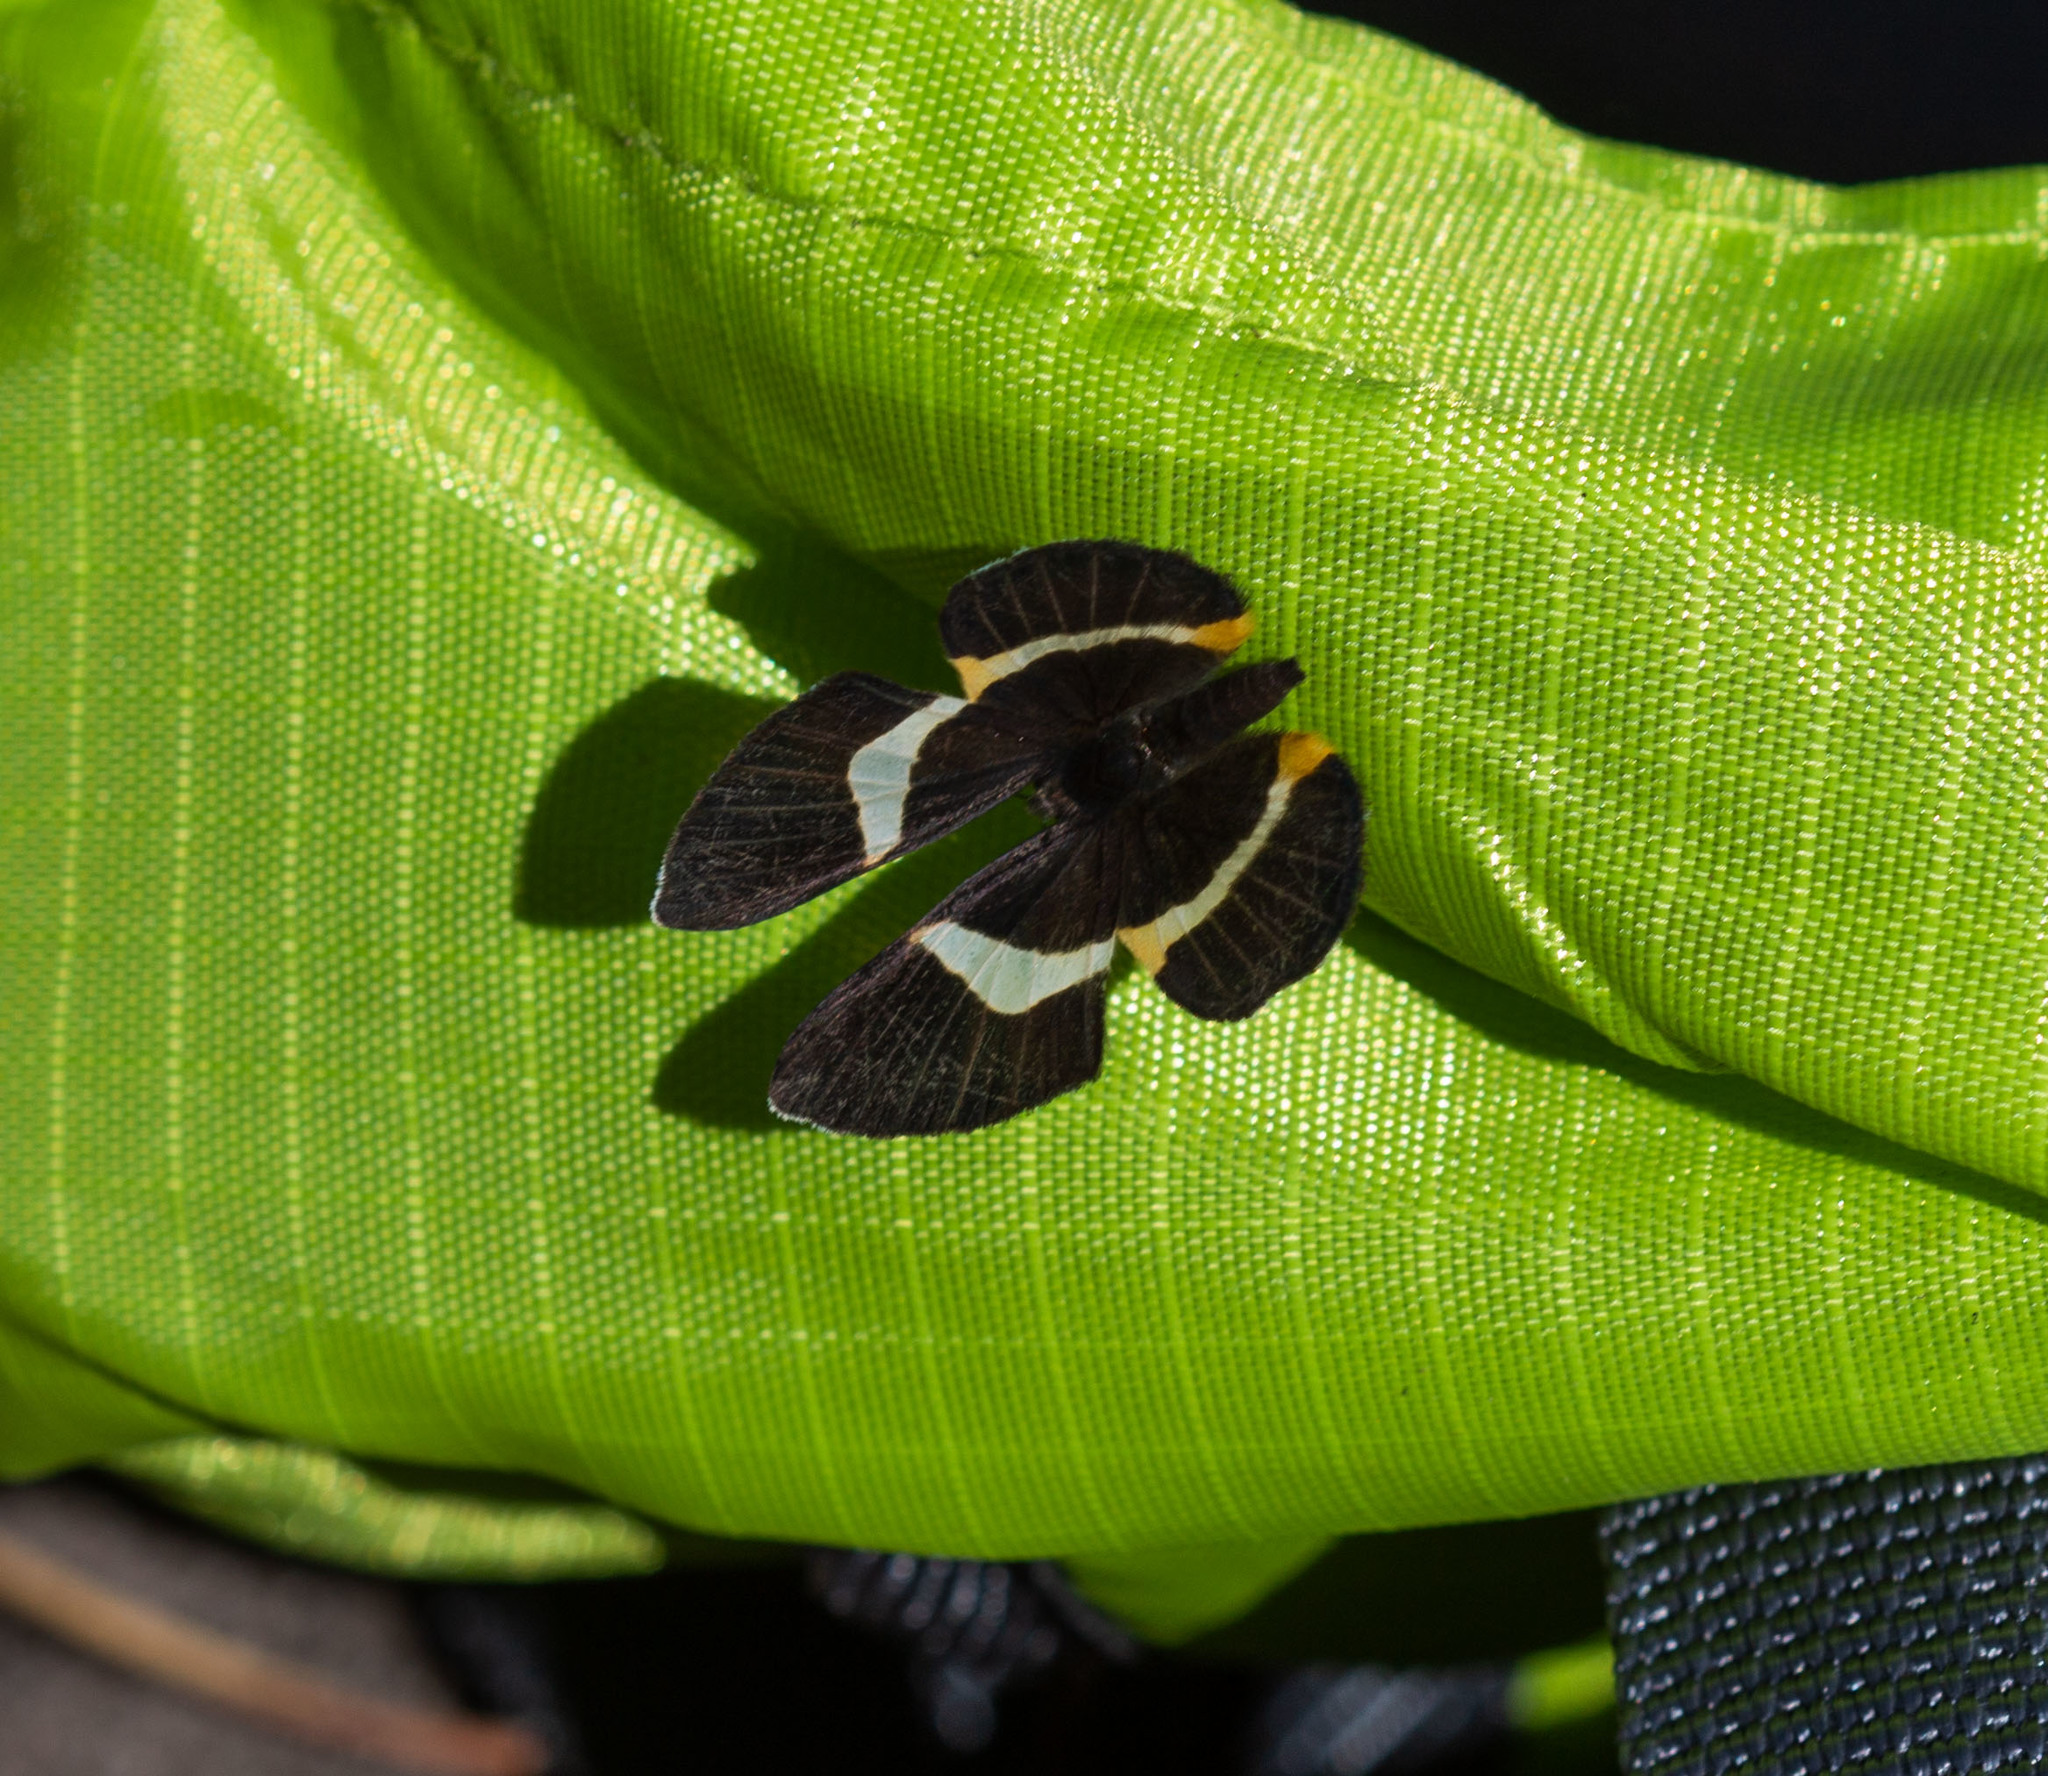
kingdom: Animalia
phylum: Arthropoda
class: Insecta
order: Lepidoptera
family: Riodinidae
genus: Notheme
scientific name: Notheme eumeus
